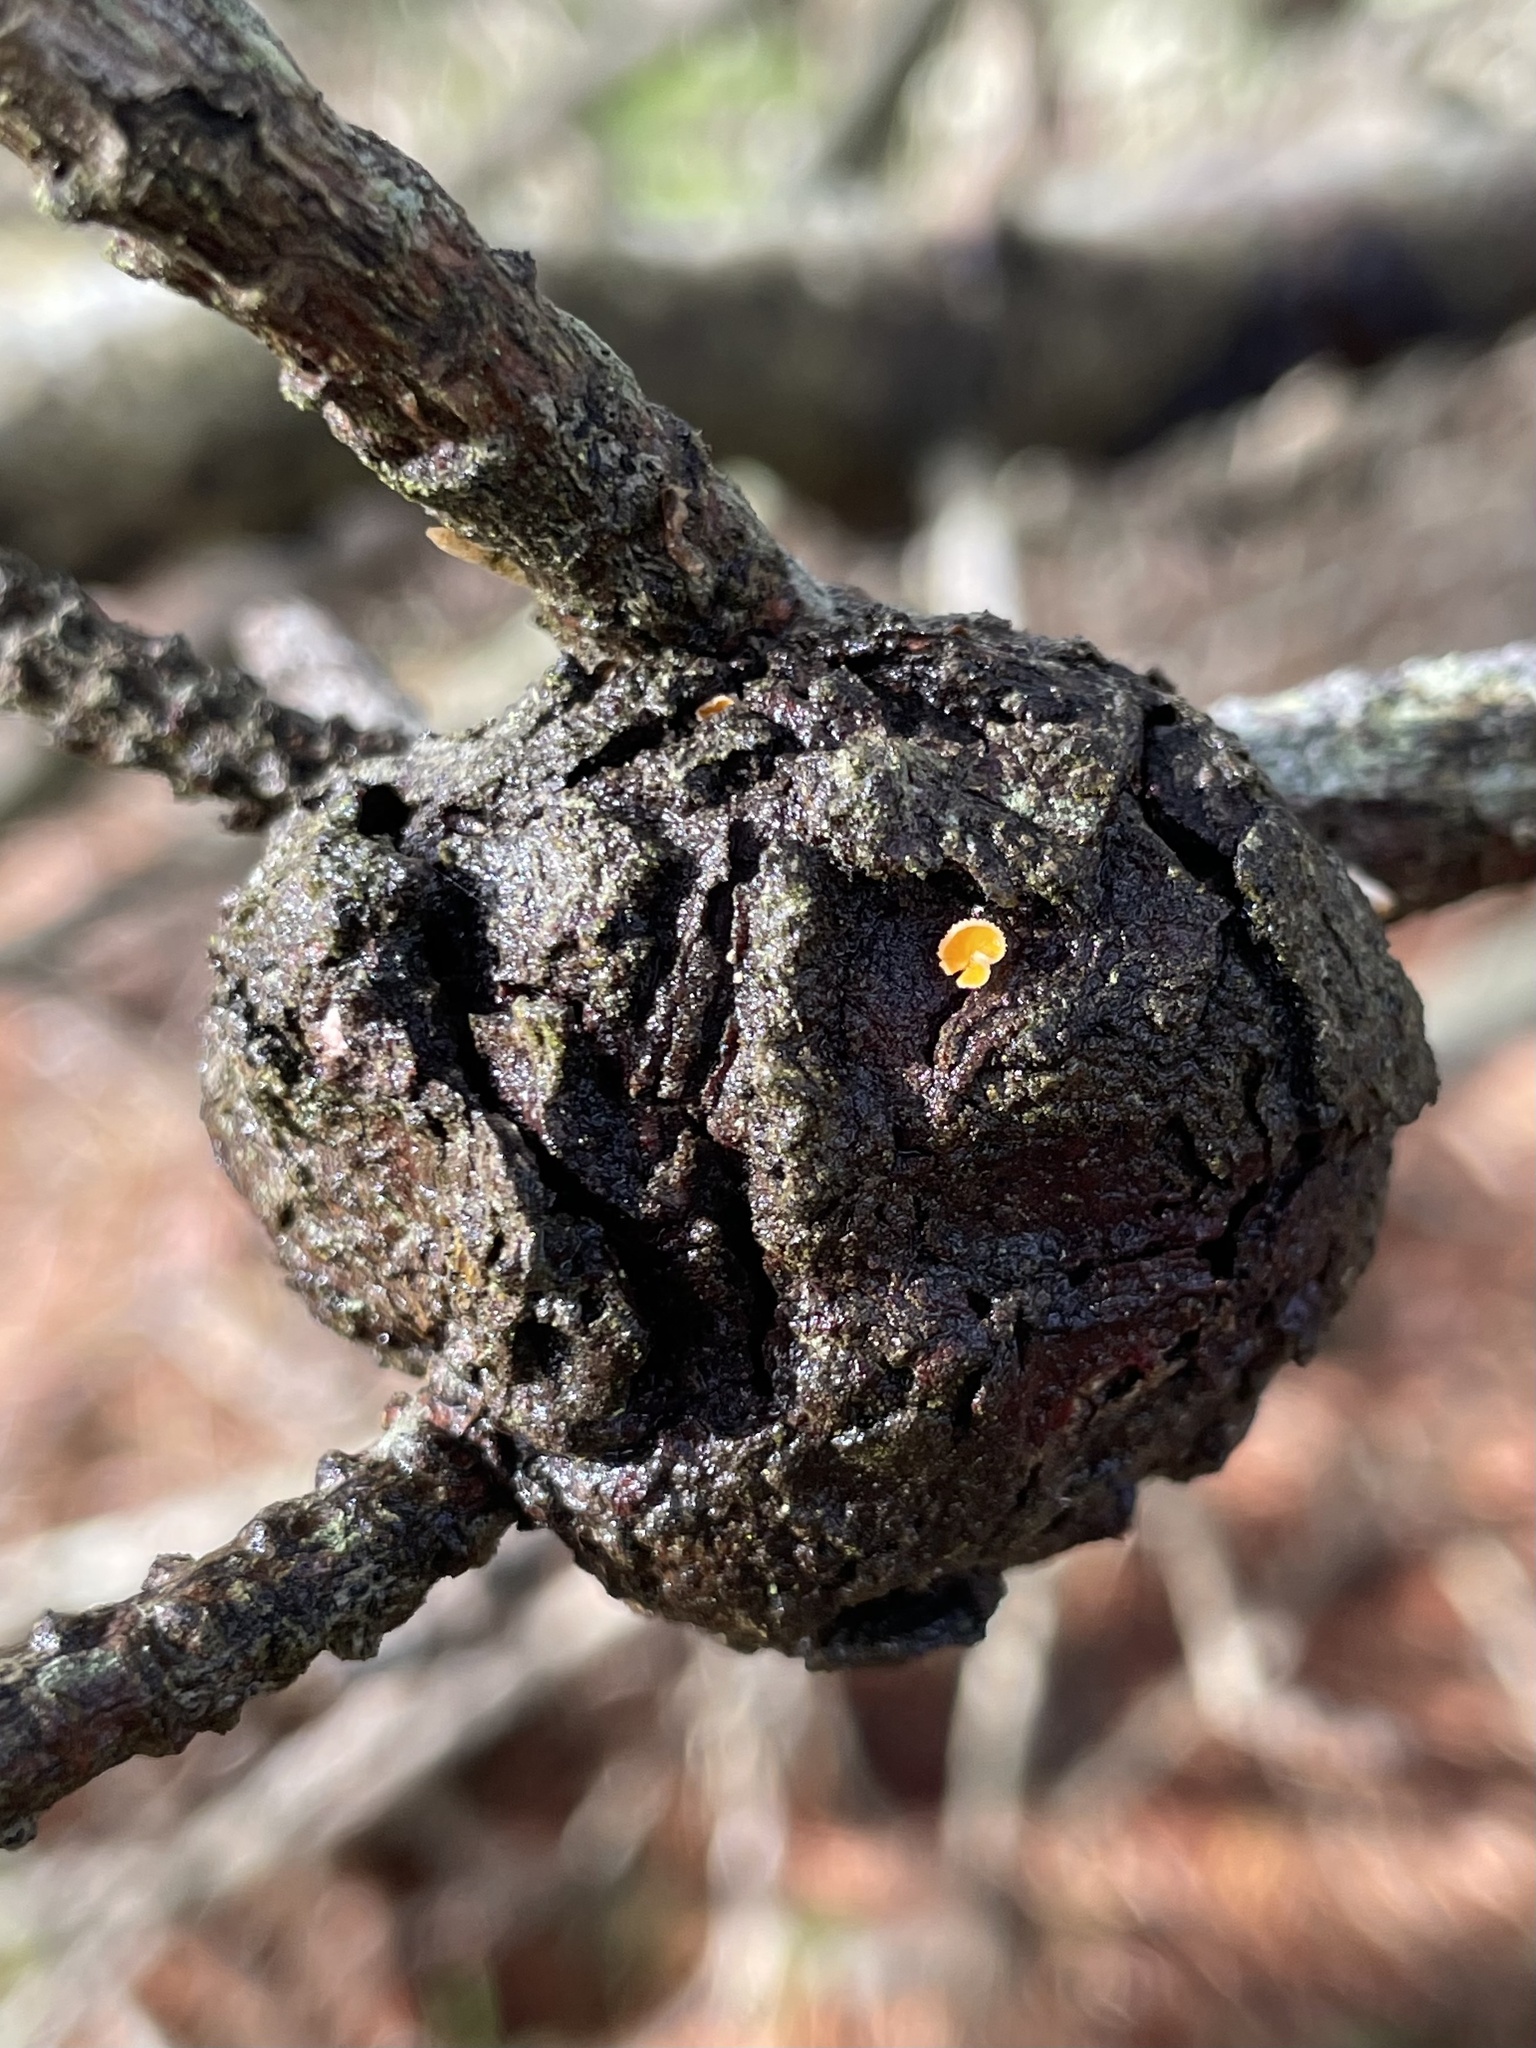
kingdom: Fungi
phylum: Basidiomycota
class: Pucciniomycetes
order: Pucciniales
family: Cronartiaceae
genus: Cronartium
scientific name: Cronartium harknessii
